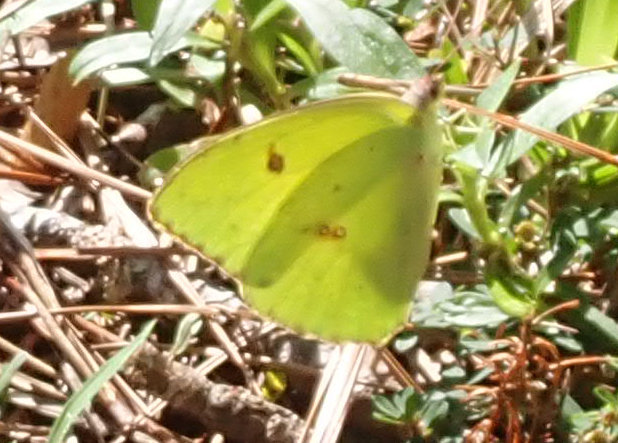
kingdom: Animalia
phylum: Arthropoda
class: Insecta
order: Lepidoptera
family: Pieridae
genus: Phoebis
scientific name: Phoebis sennae
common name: Cloudless sulphur
